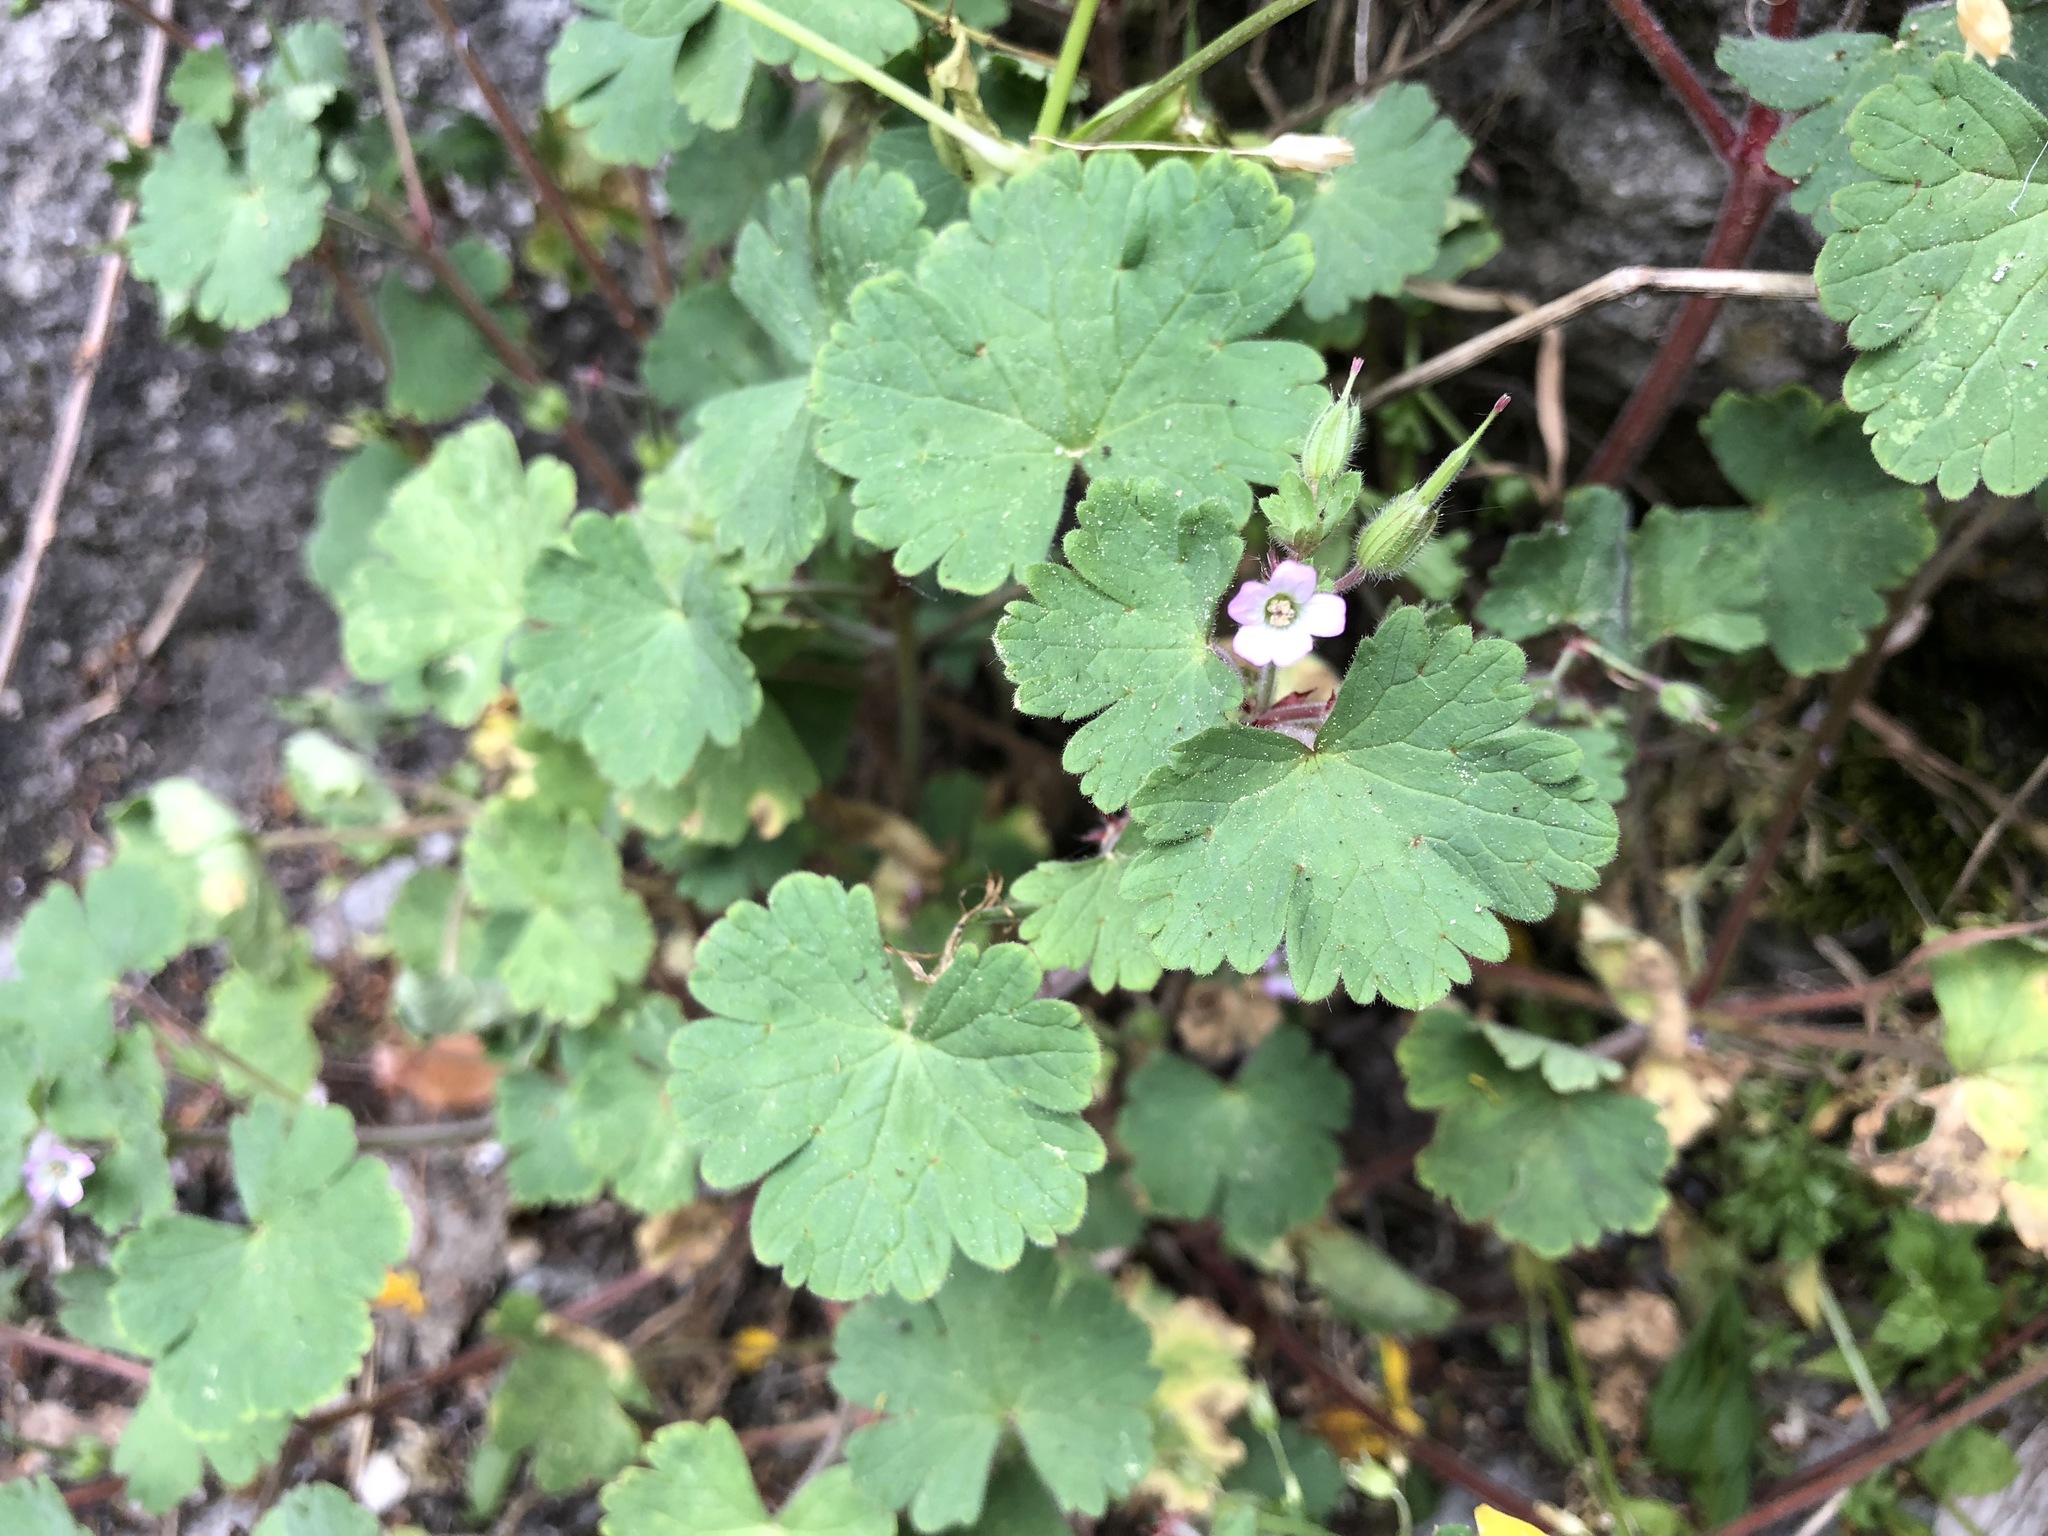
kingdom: Plantae
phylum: Tracheophyta
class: Magnoliopsida
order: Geraniales
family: Geraniaceae
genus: Geranium
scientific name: Geranium rotundifolium
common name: Round-leaved crane's-bill
